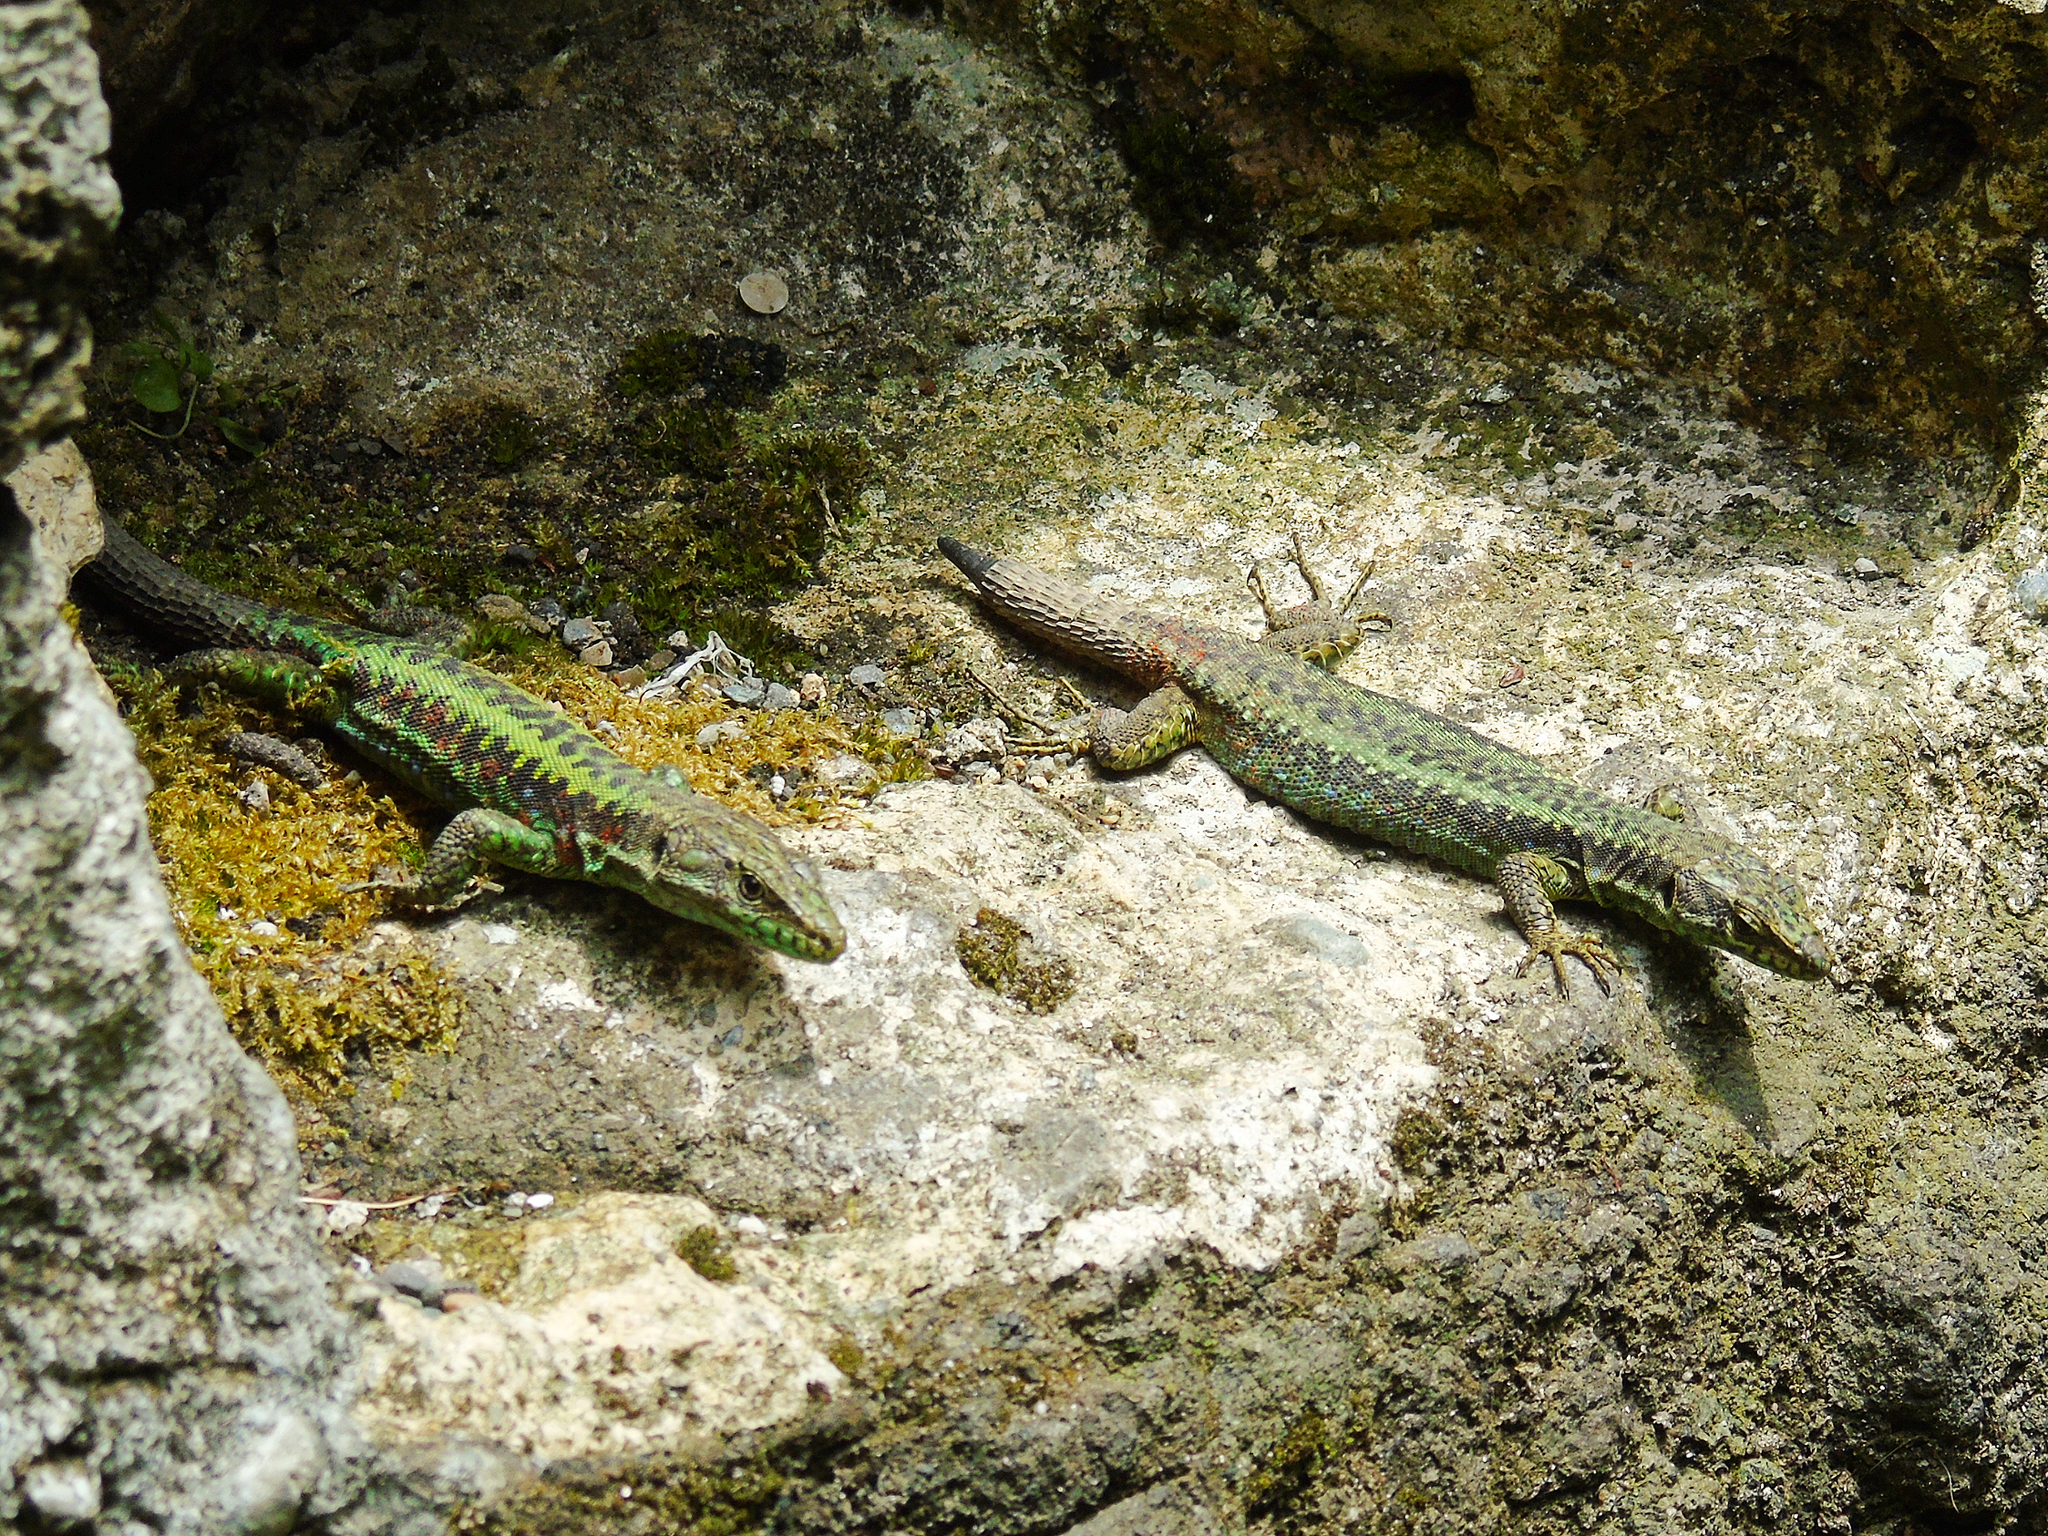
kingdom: Animalia
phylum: Chordata
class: Squamata
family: Lacertidae
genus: Darevskia
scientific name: Darevskia rudis
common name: Spiny-tailed lizard
